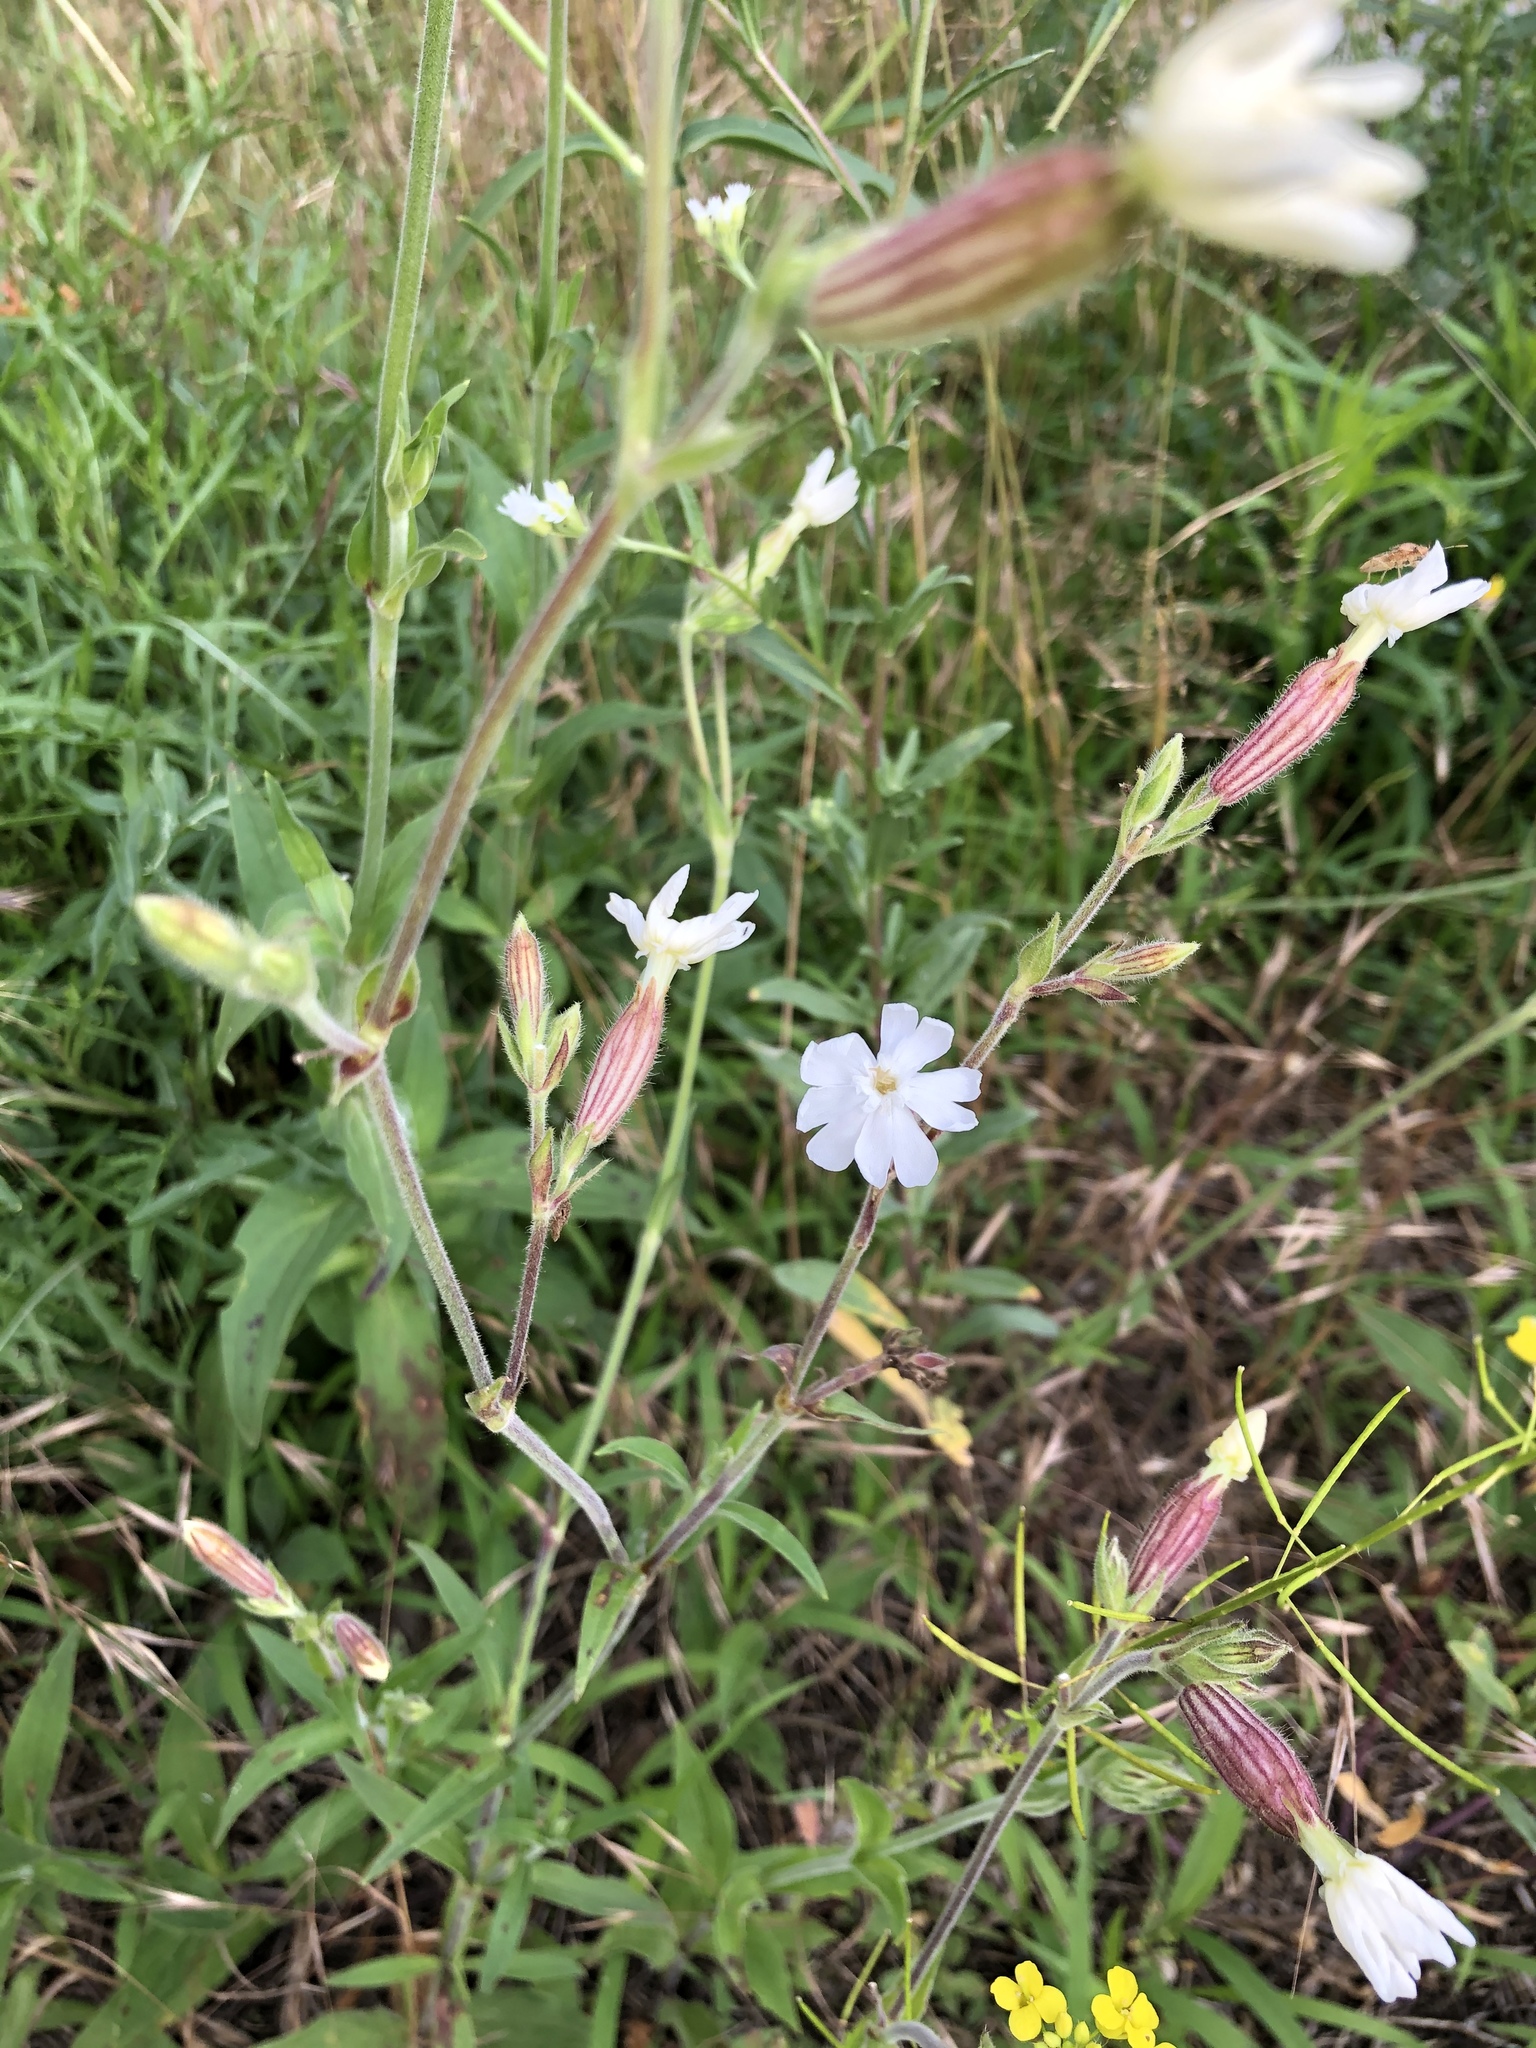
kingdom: Plantae
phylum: Tracheophyta
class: Magnoliopsida
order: Caryophyllales
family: Caryophyllaceae
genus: Silene
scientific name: Silene latifolia
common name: White campion
